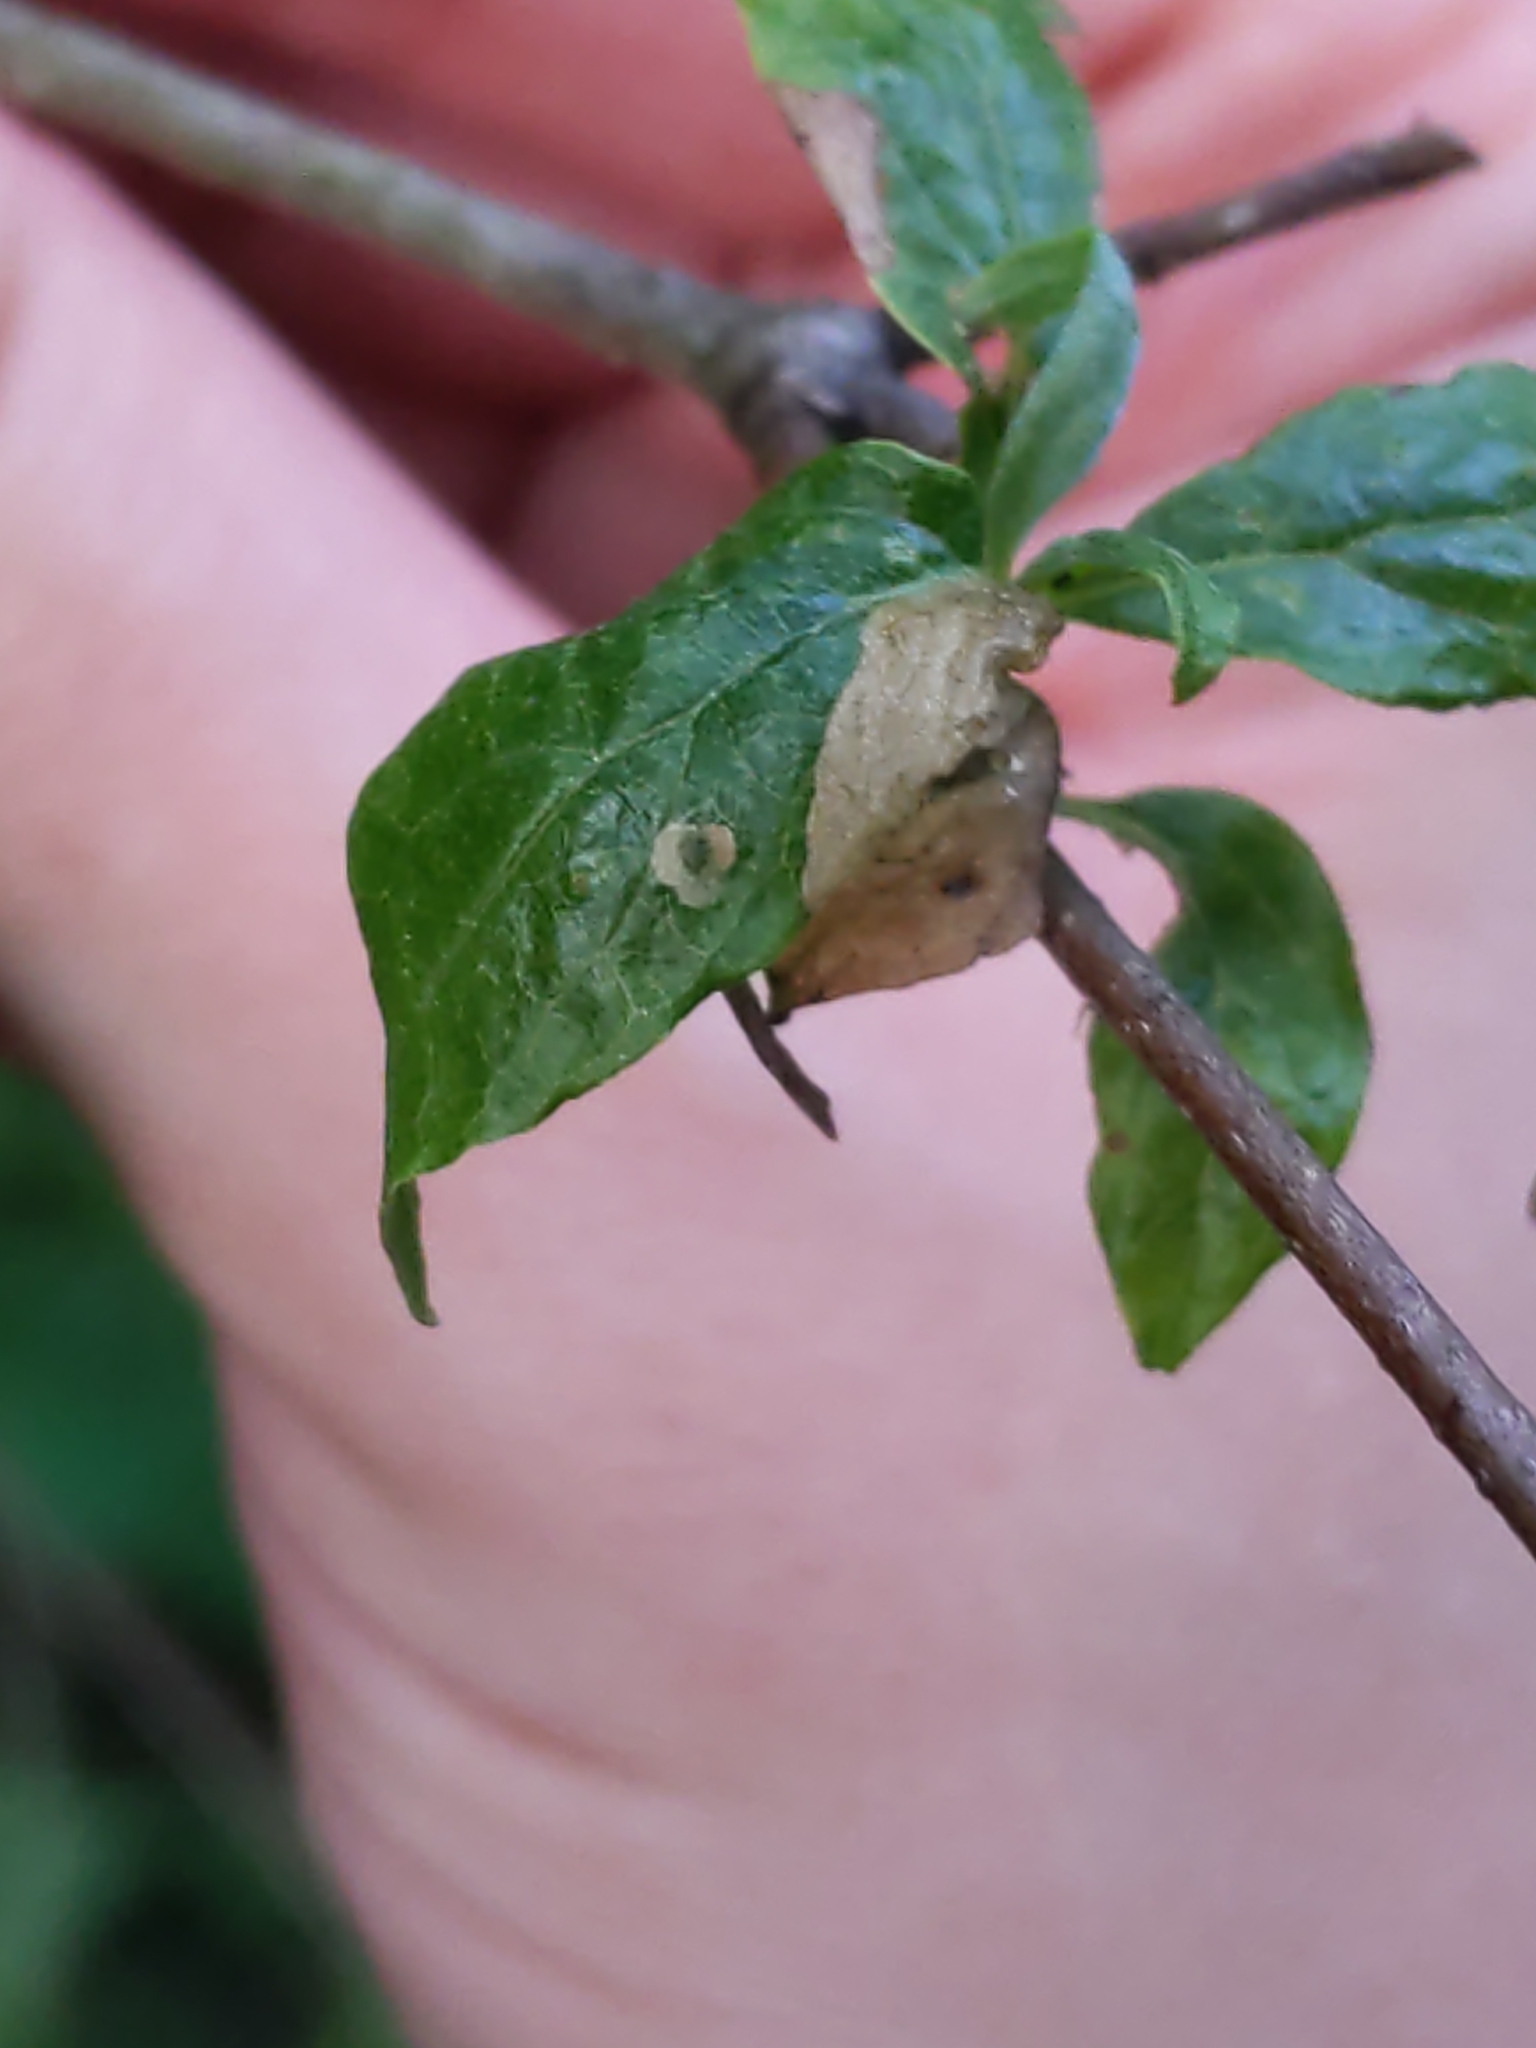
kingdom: Animalia
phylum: Arthropoda
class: Insecta
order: Lepidoptera
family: Coleophoridae
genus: Coleophora
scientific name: Coleophora cornella
